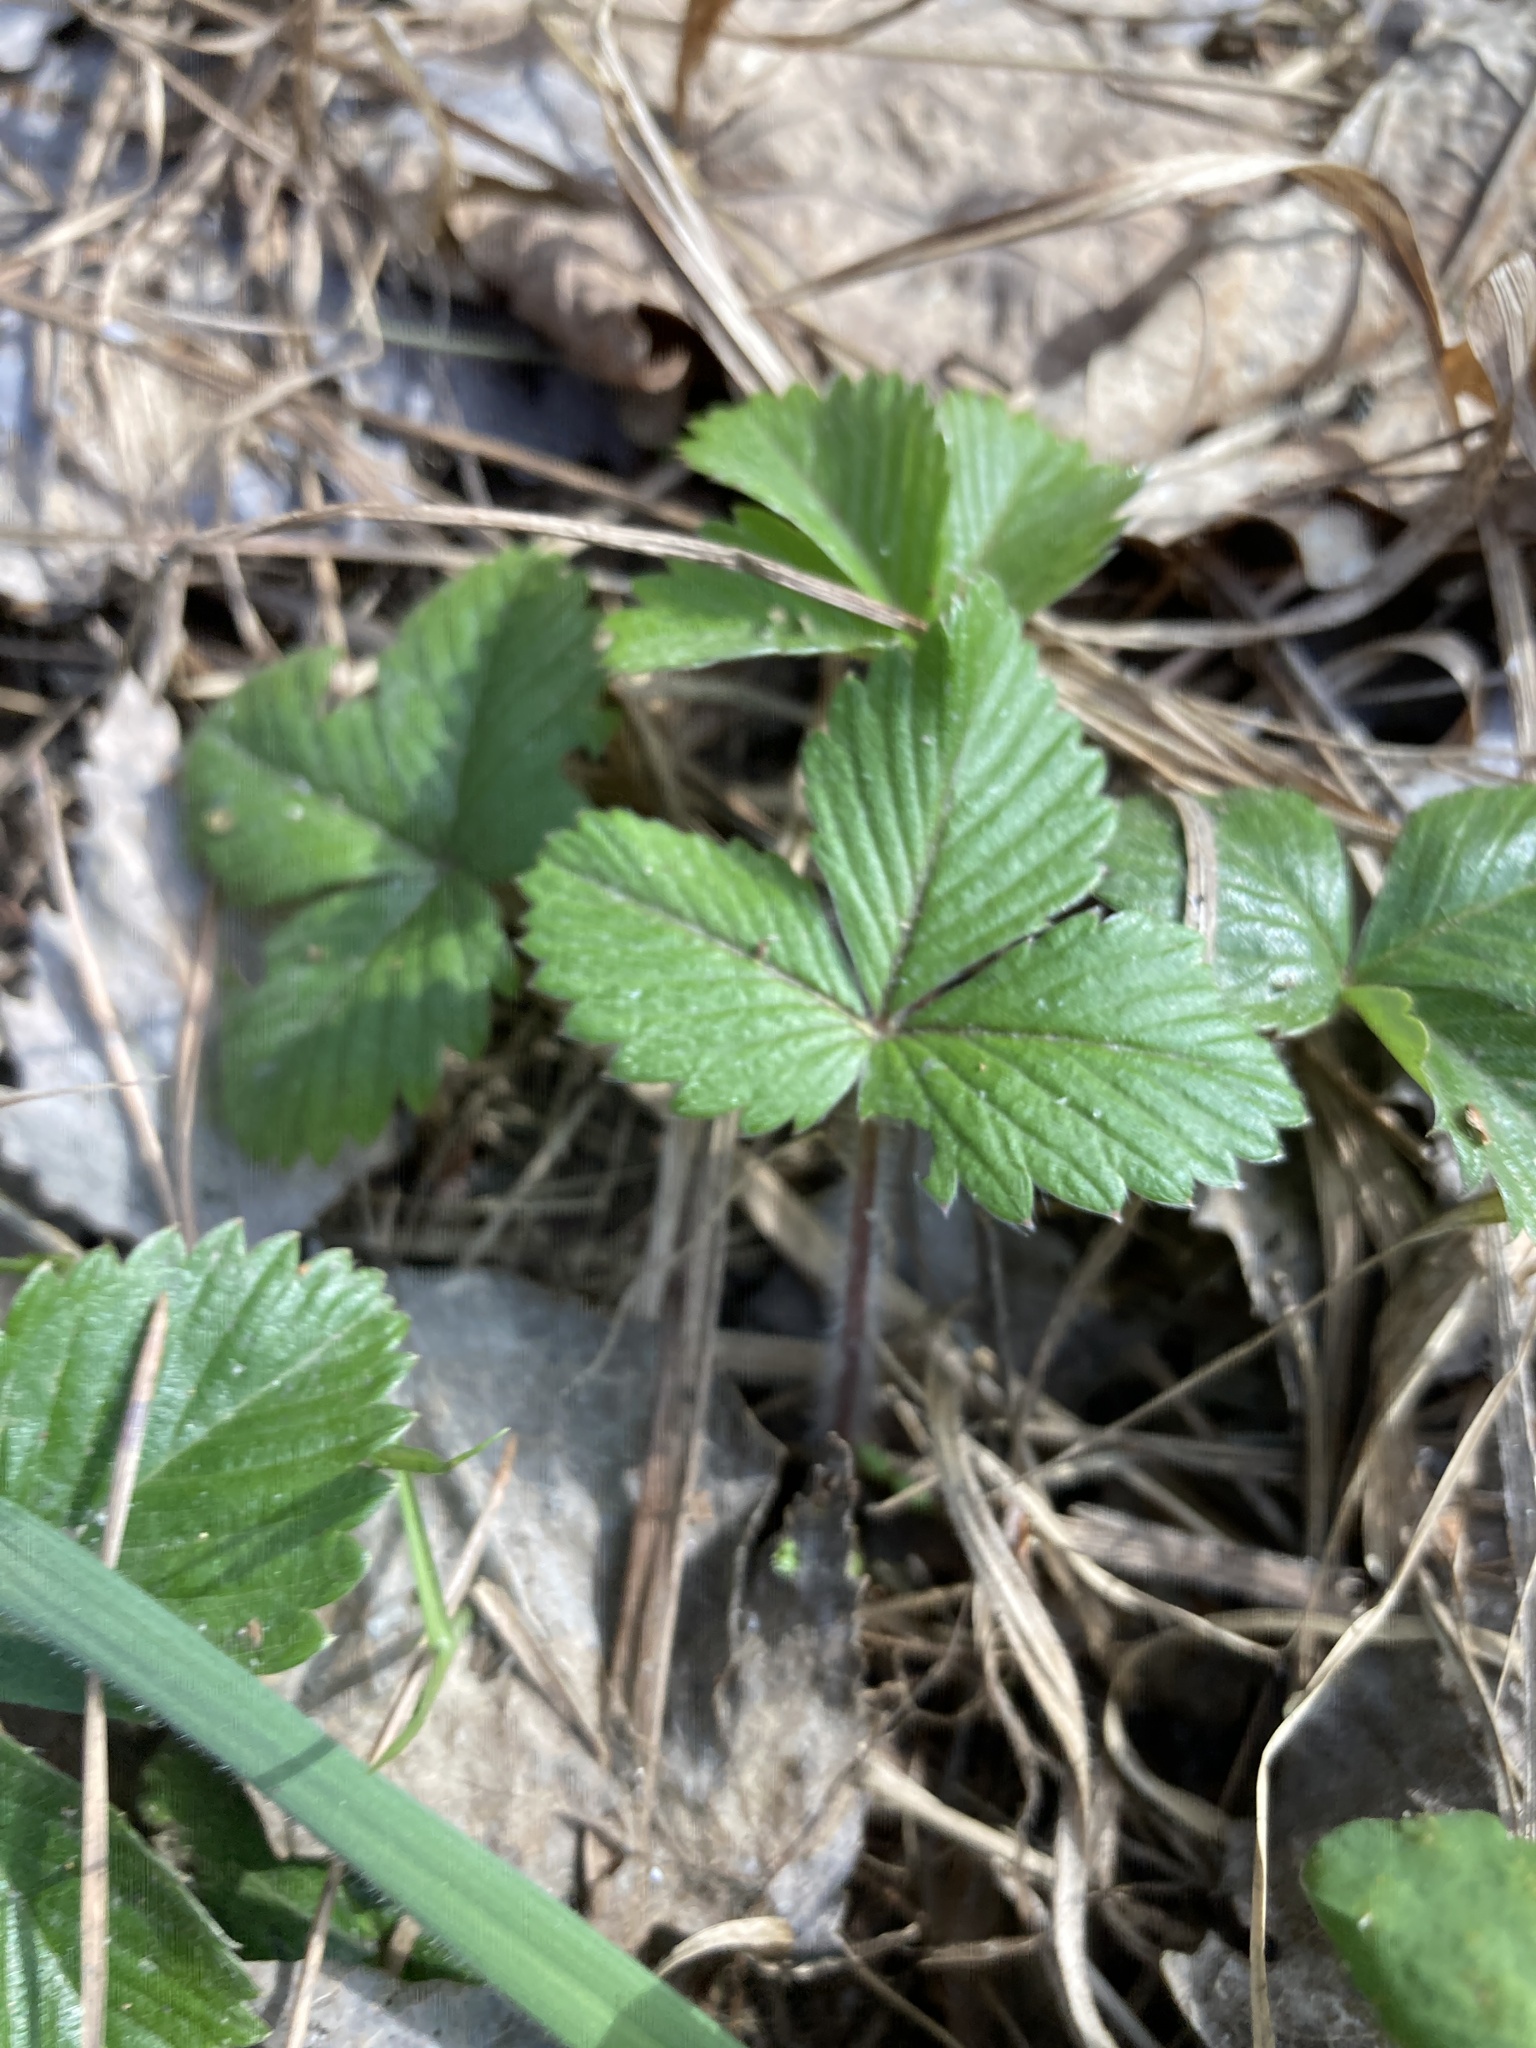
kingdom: Plantae
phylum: Tracheophyta
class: Magnoliopsida
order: Rosales
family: Rosaceae
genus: Fragaria
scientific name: Fragaria vesca
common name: Wild strawberry
